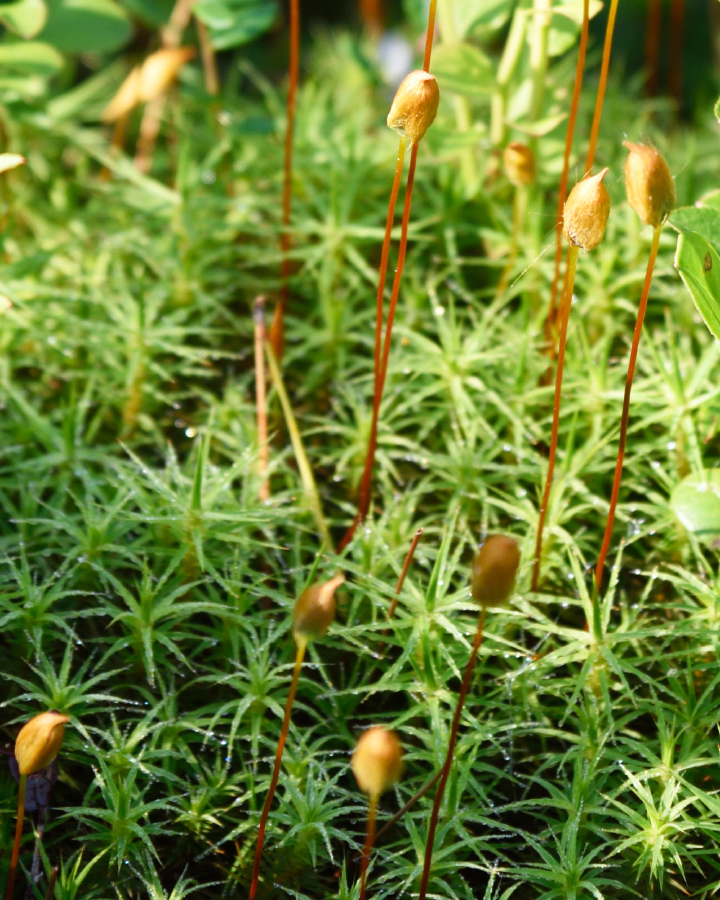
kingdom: Plantae
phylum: Bryophyta
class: Polytrichopsida
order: Polytrichales
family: Polytrichaceae
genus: Polytrichum
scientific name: Polytrichum commune
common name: Common haircap
